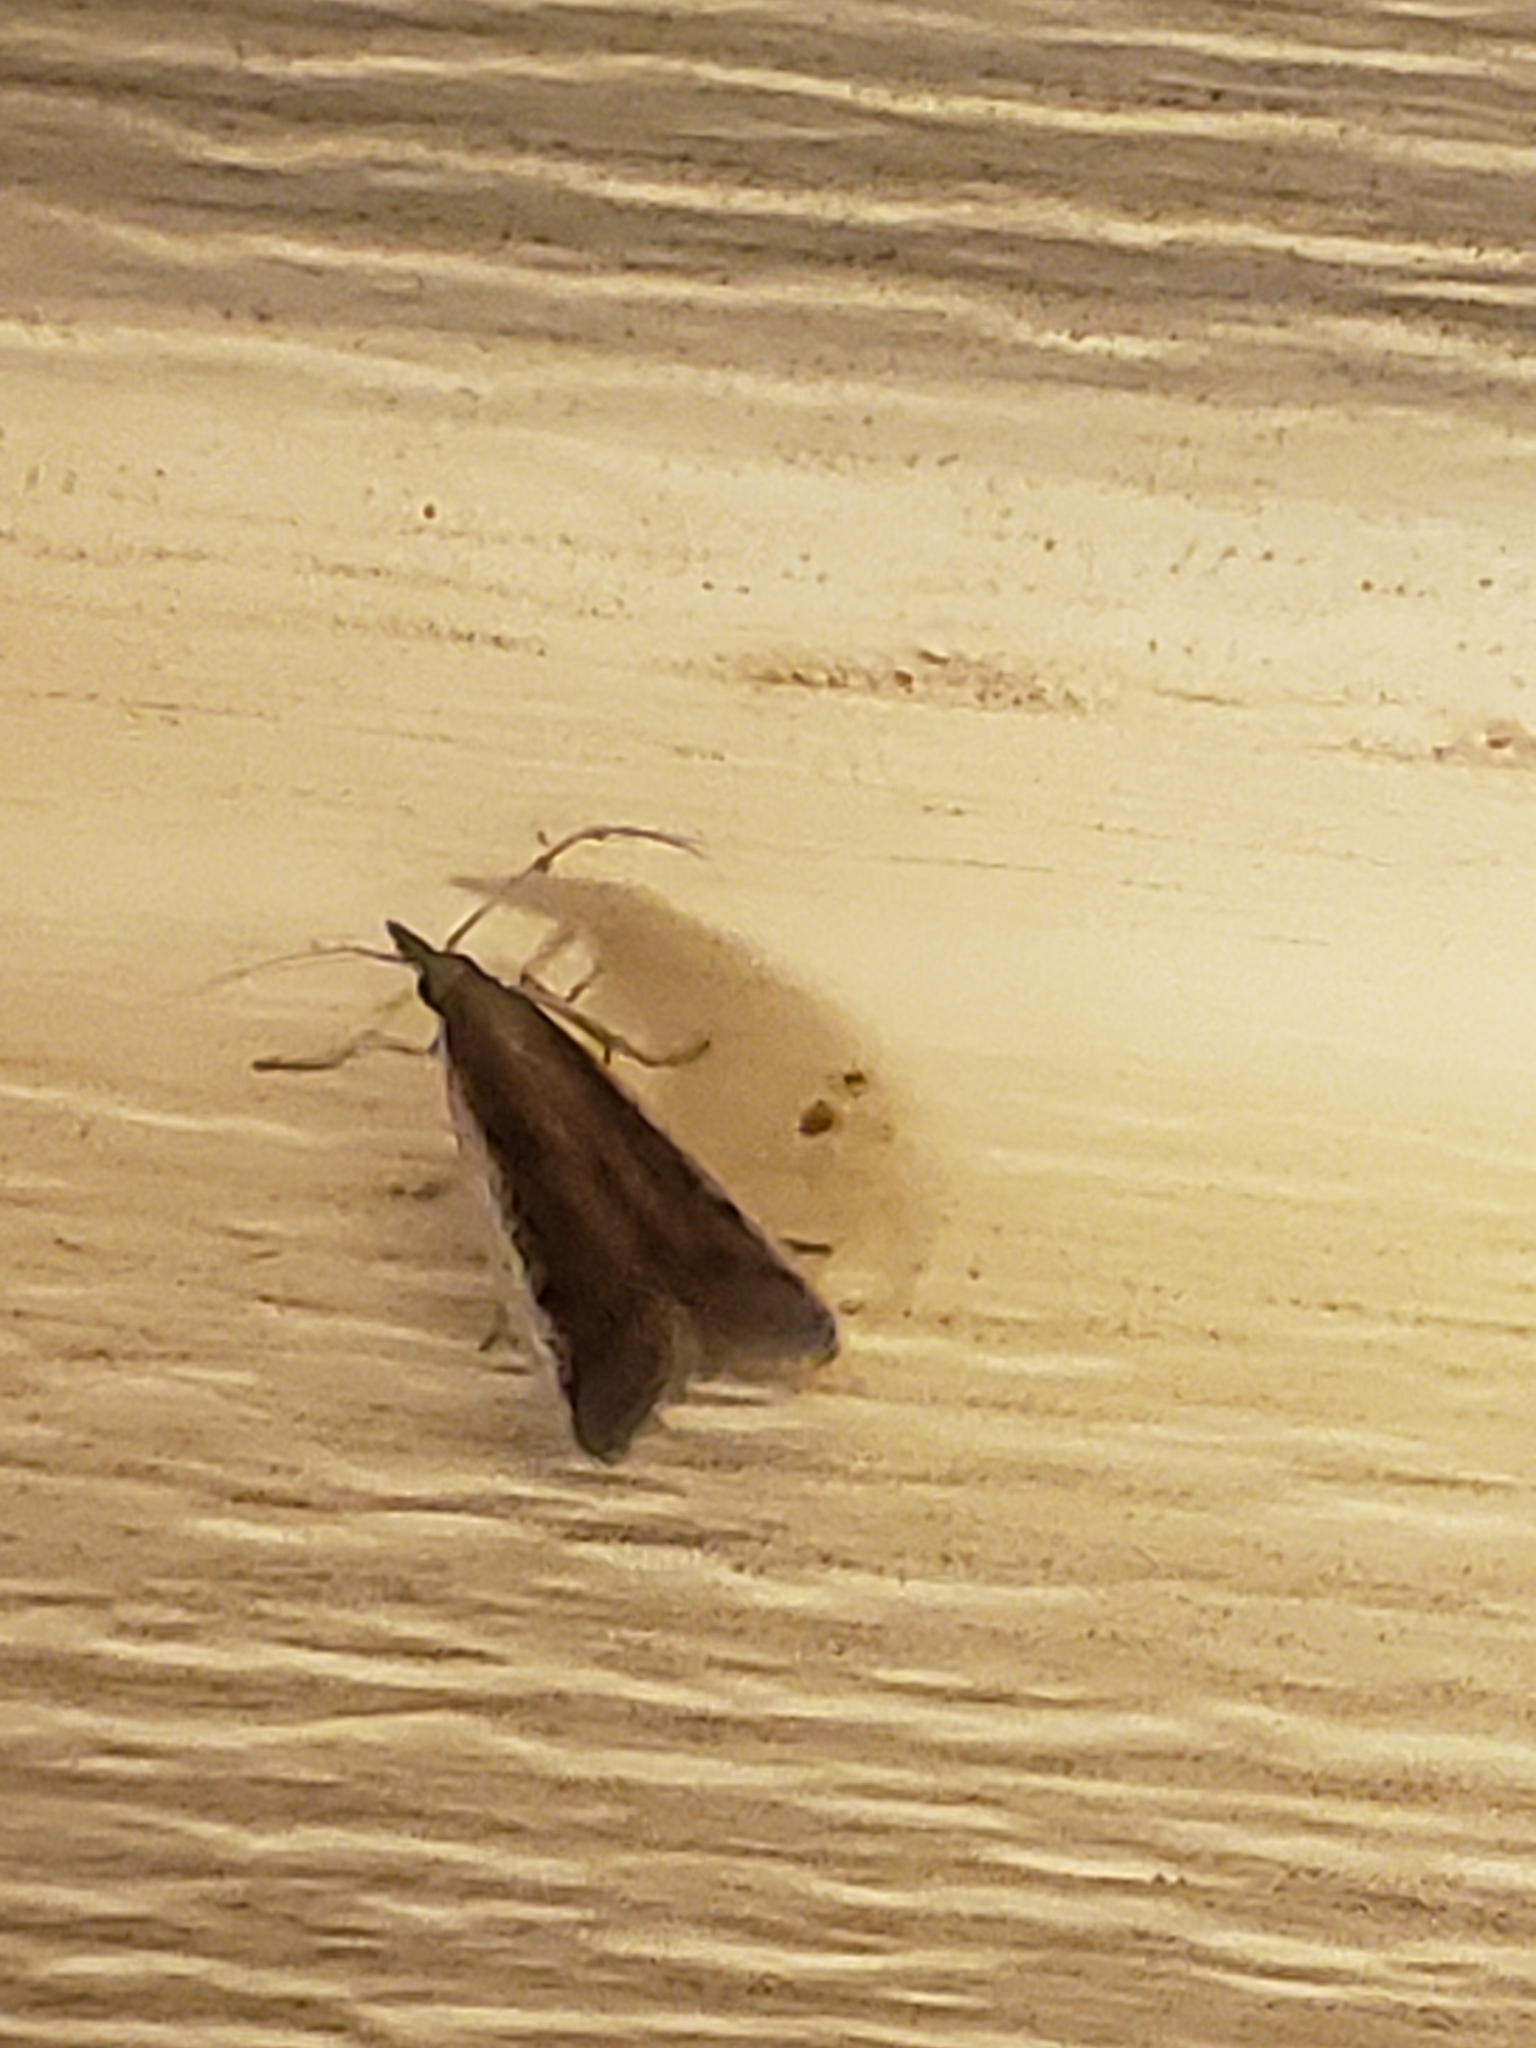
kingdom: Animalia
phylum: Arthropoda
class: Insecta
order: Lepidoptera
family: Pyralidae
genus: Atascosa
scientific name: Atascosa glareosella
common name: Rosy atascosa moth
